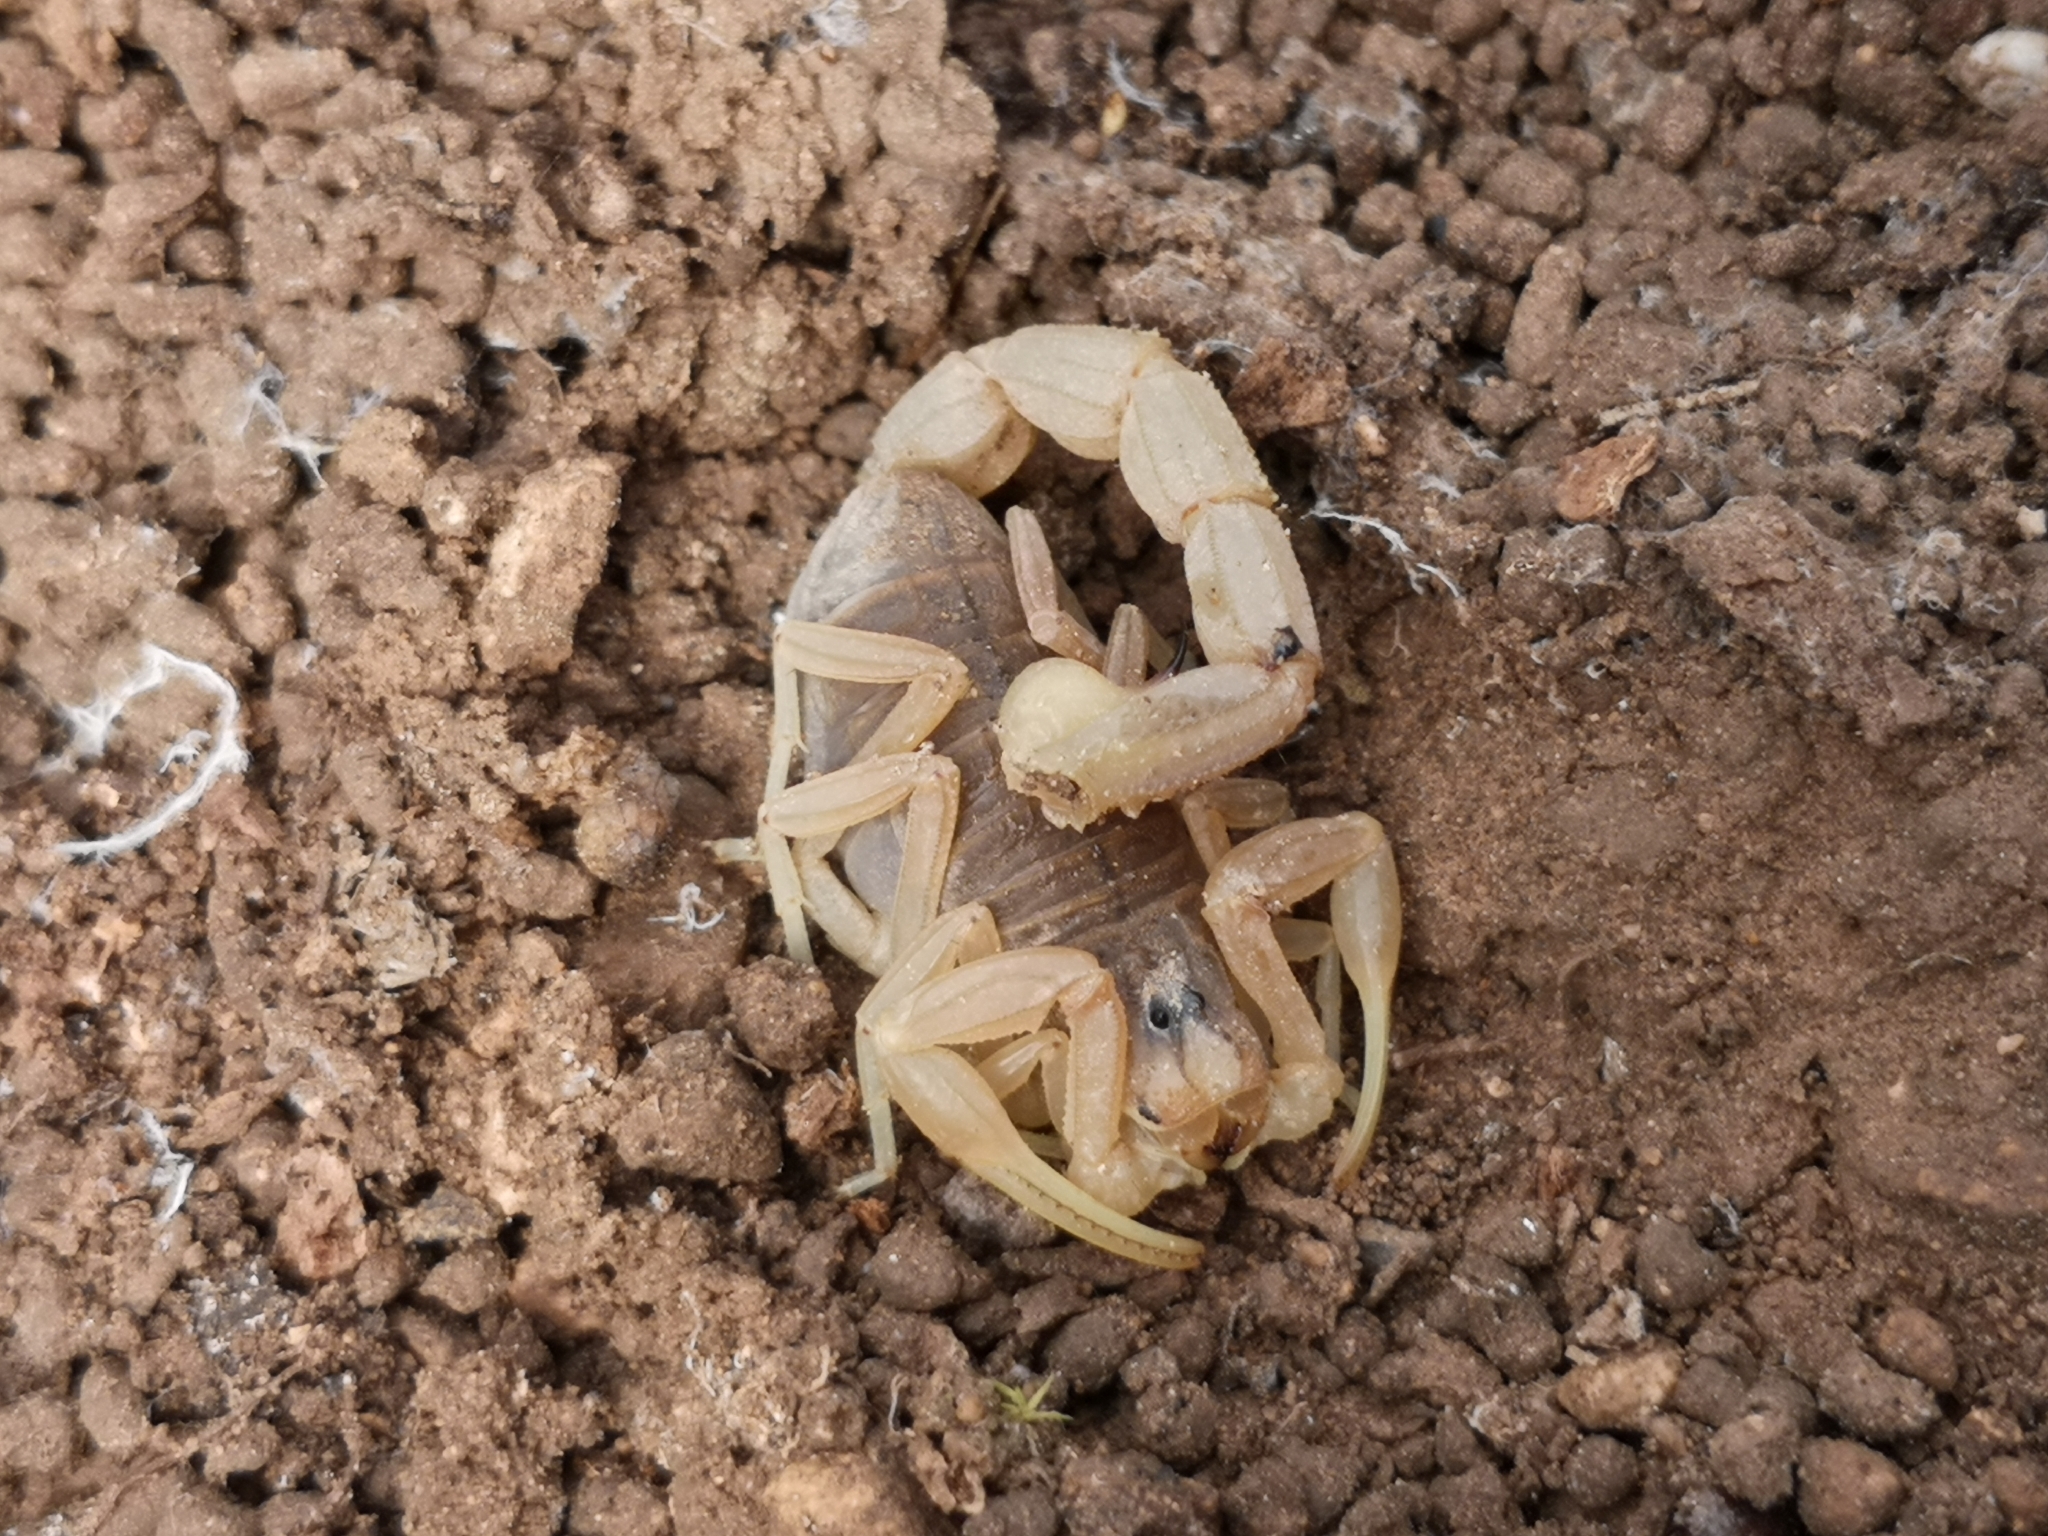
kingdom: Animalia
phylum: Arthropoda
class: Arachnida
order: Scorpiones
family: Buthidae
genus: Buthus
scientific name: Buthus occitanus
